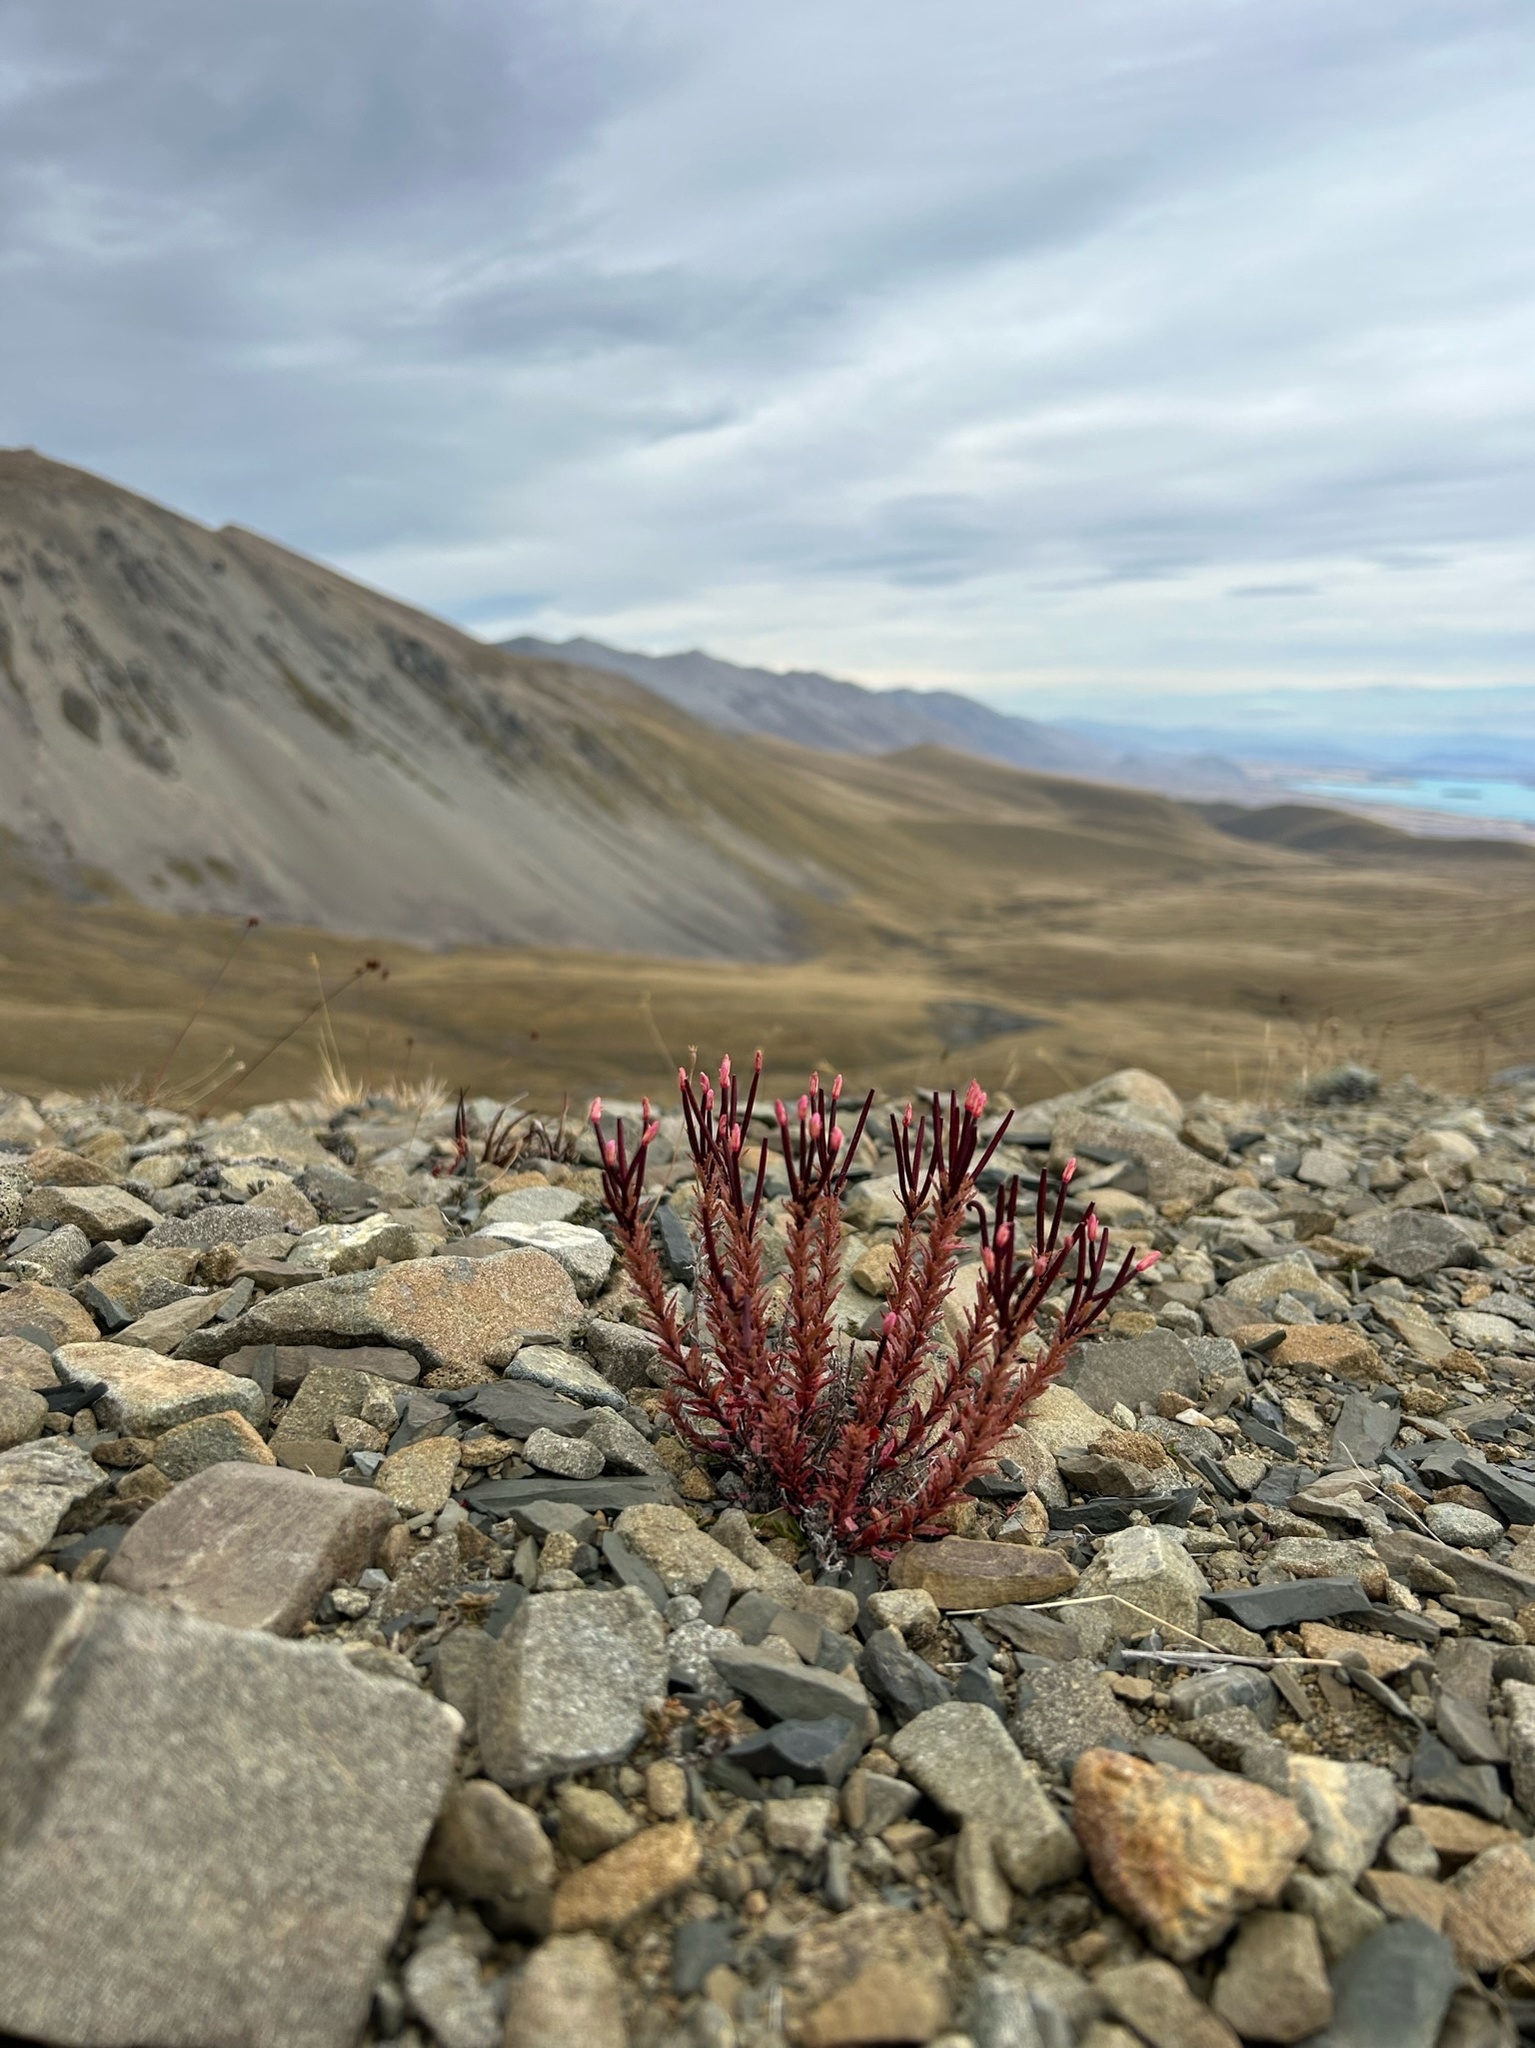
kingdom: Plantae
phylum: Tracheophyta
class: Magnoliopsida
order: Myrtales
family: Onagraceae
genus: Epilobium
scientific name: Epilobium melanocaulon
